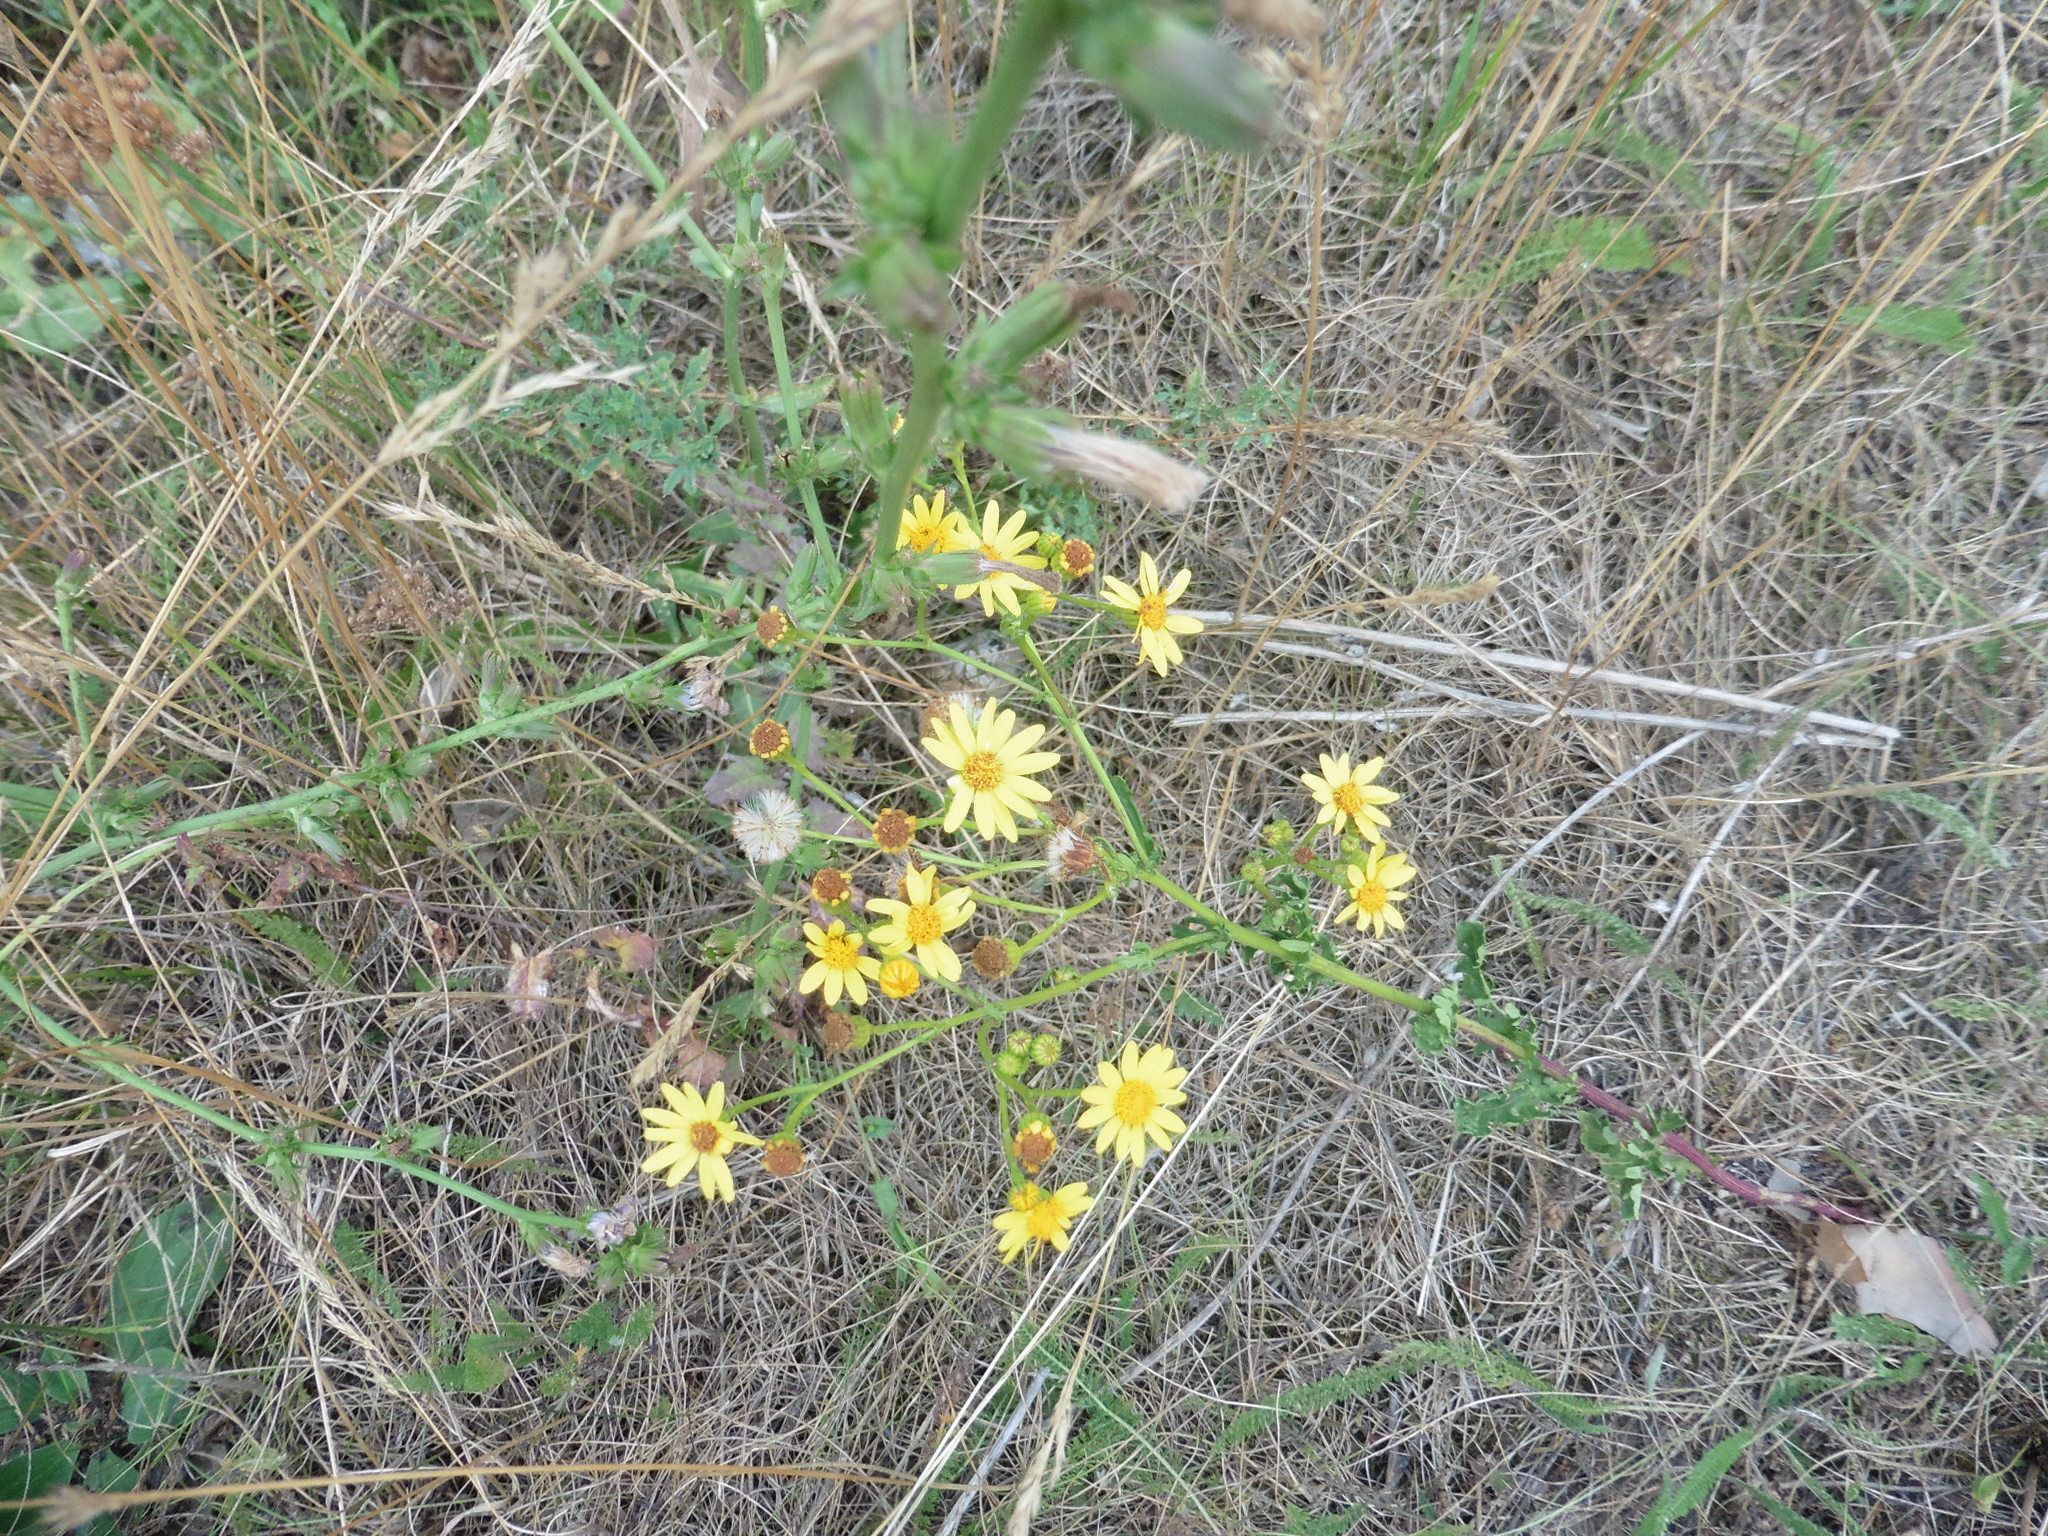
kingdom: Plantae
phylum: Tracheophyta
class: Magnoliopsida
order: Asterales
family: Asteraceae
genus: Jacobaea
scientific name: Jacobaea vulgaris
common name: Stinking willie
